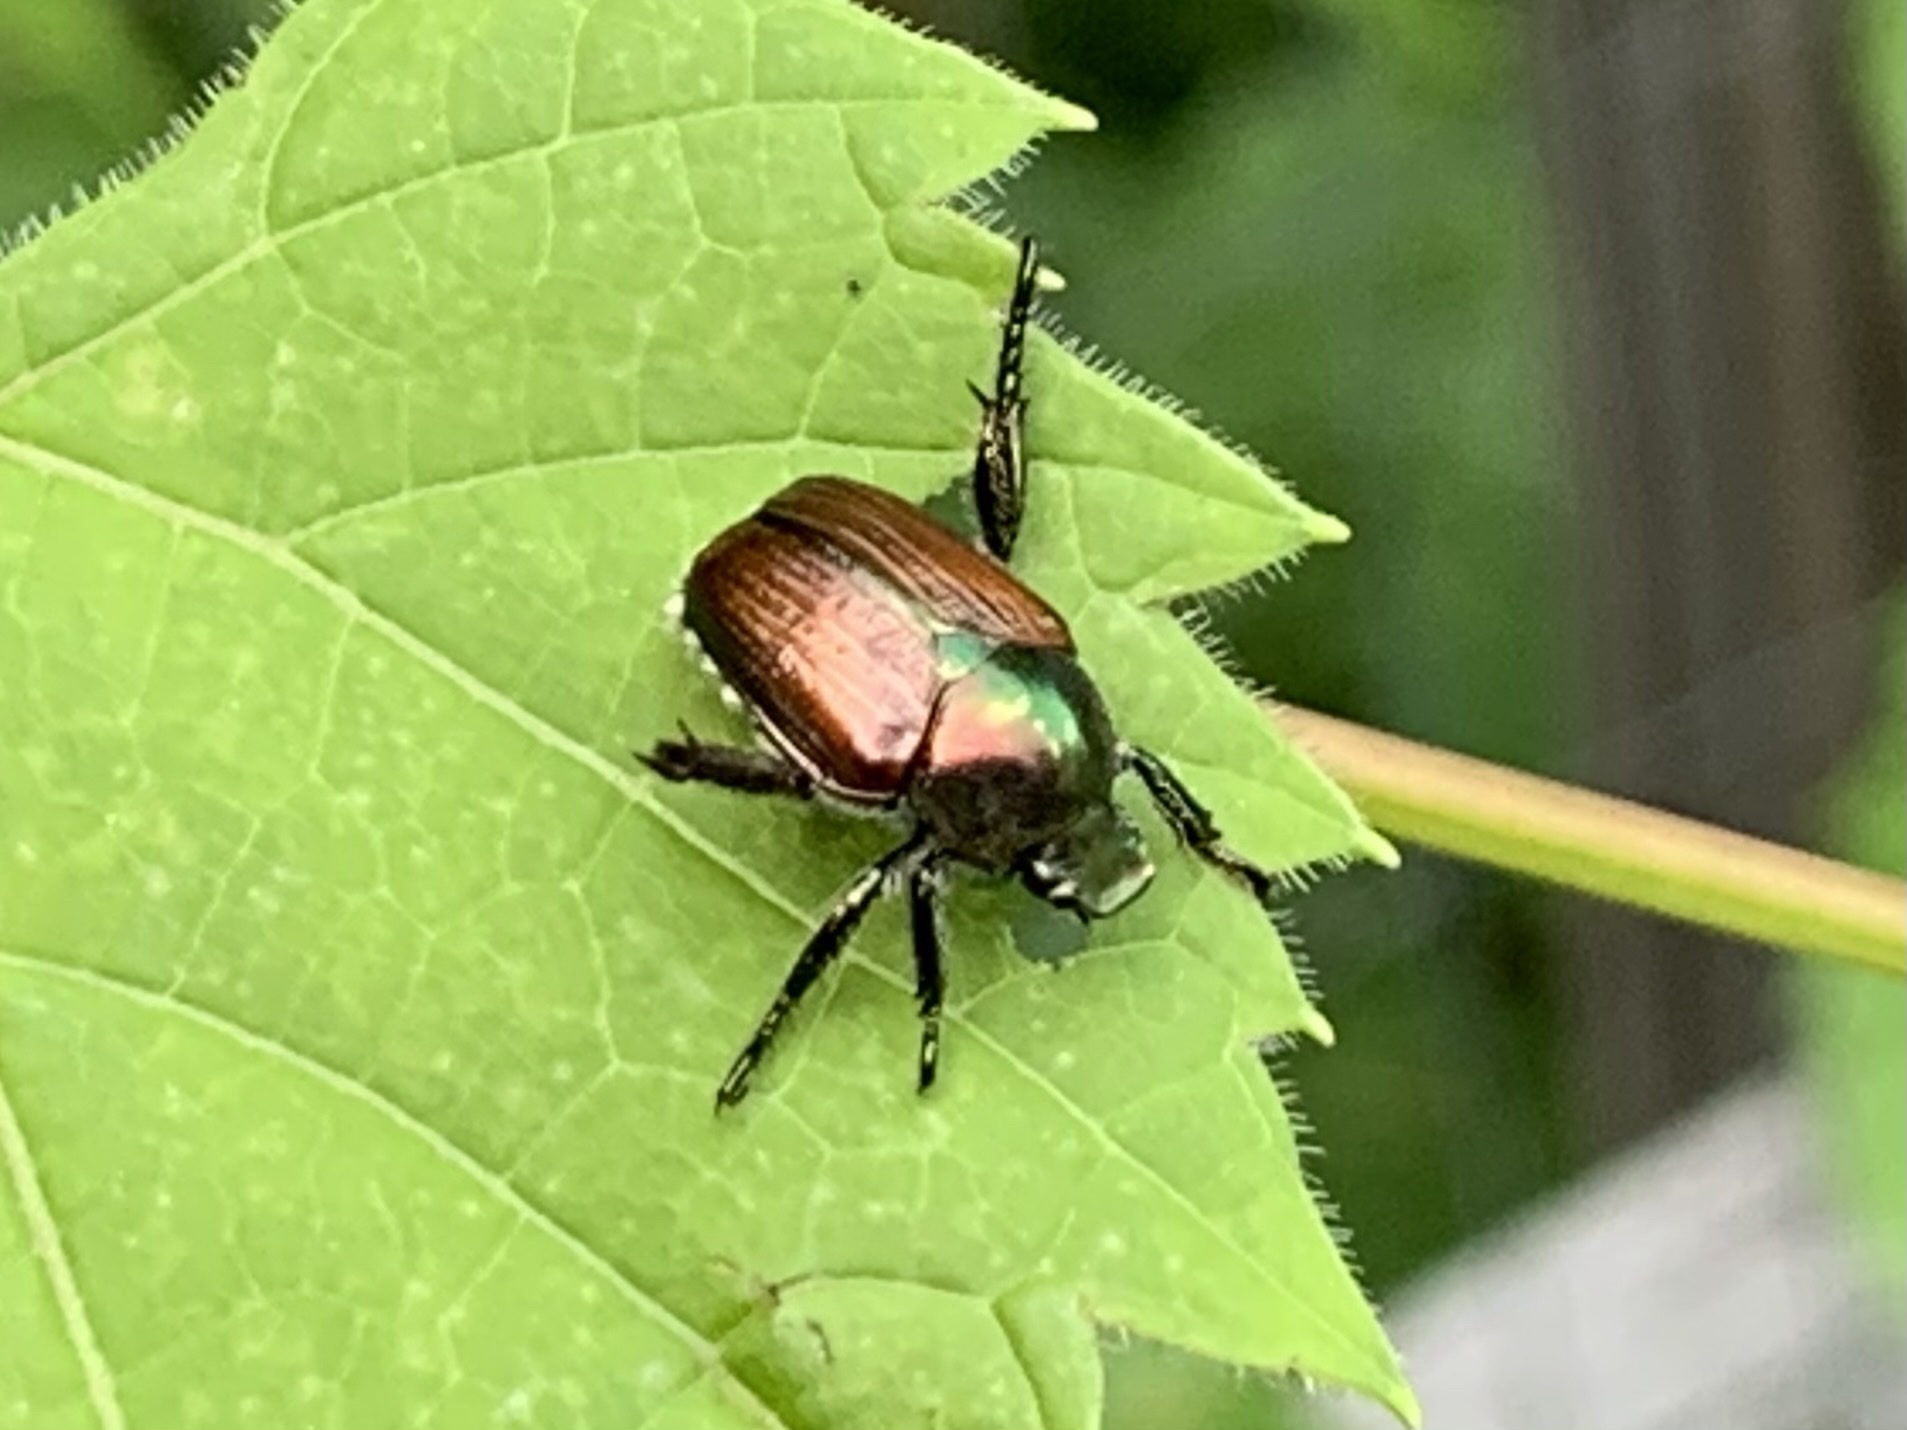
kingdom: Animalia
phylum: Arthropoda
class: Insecta
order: Coleoptera
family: Scarabaeidae
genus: Popillia
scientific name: Popillia japonica
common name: Japanese beetle
